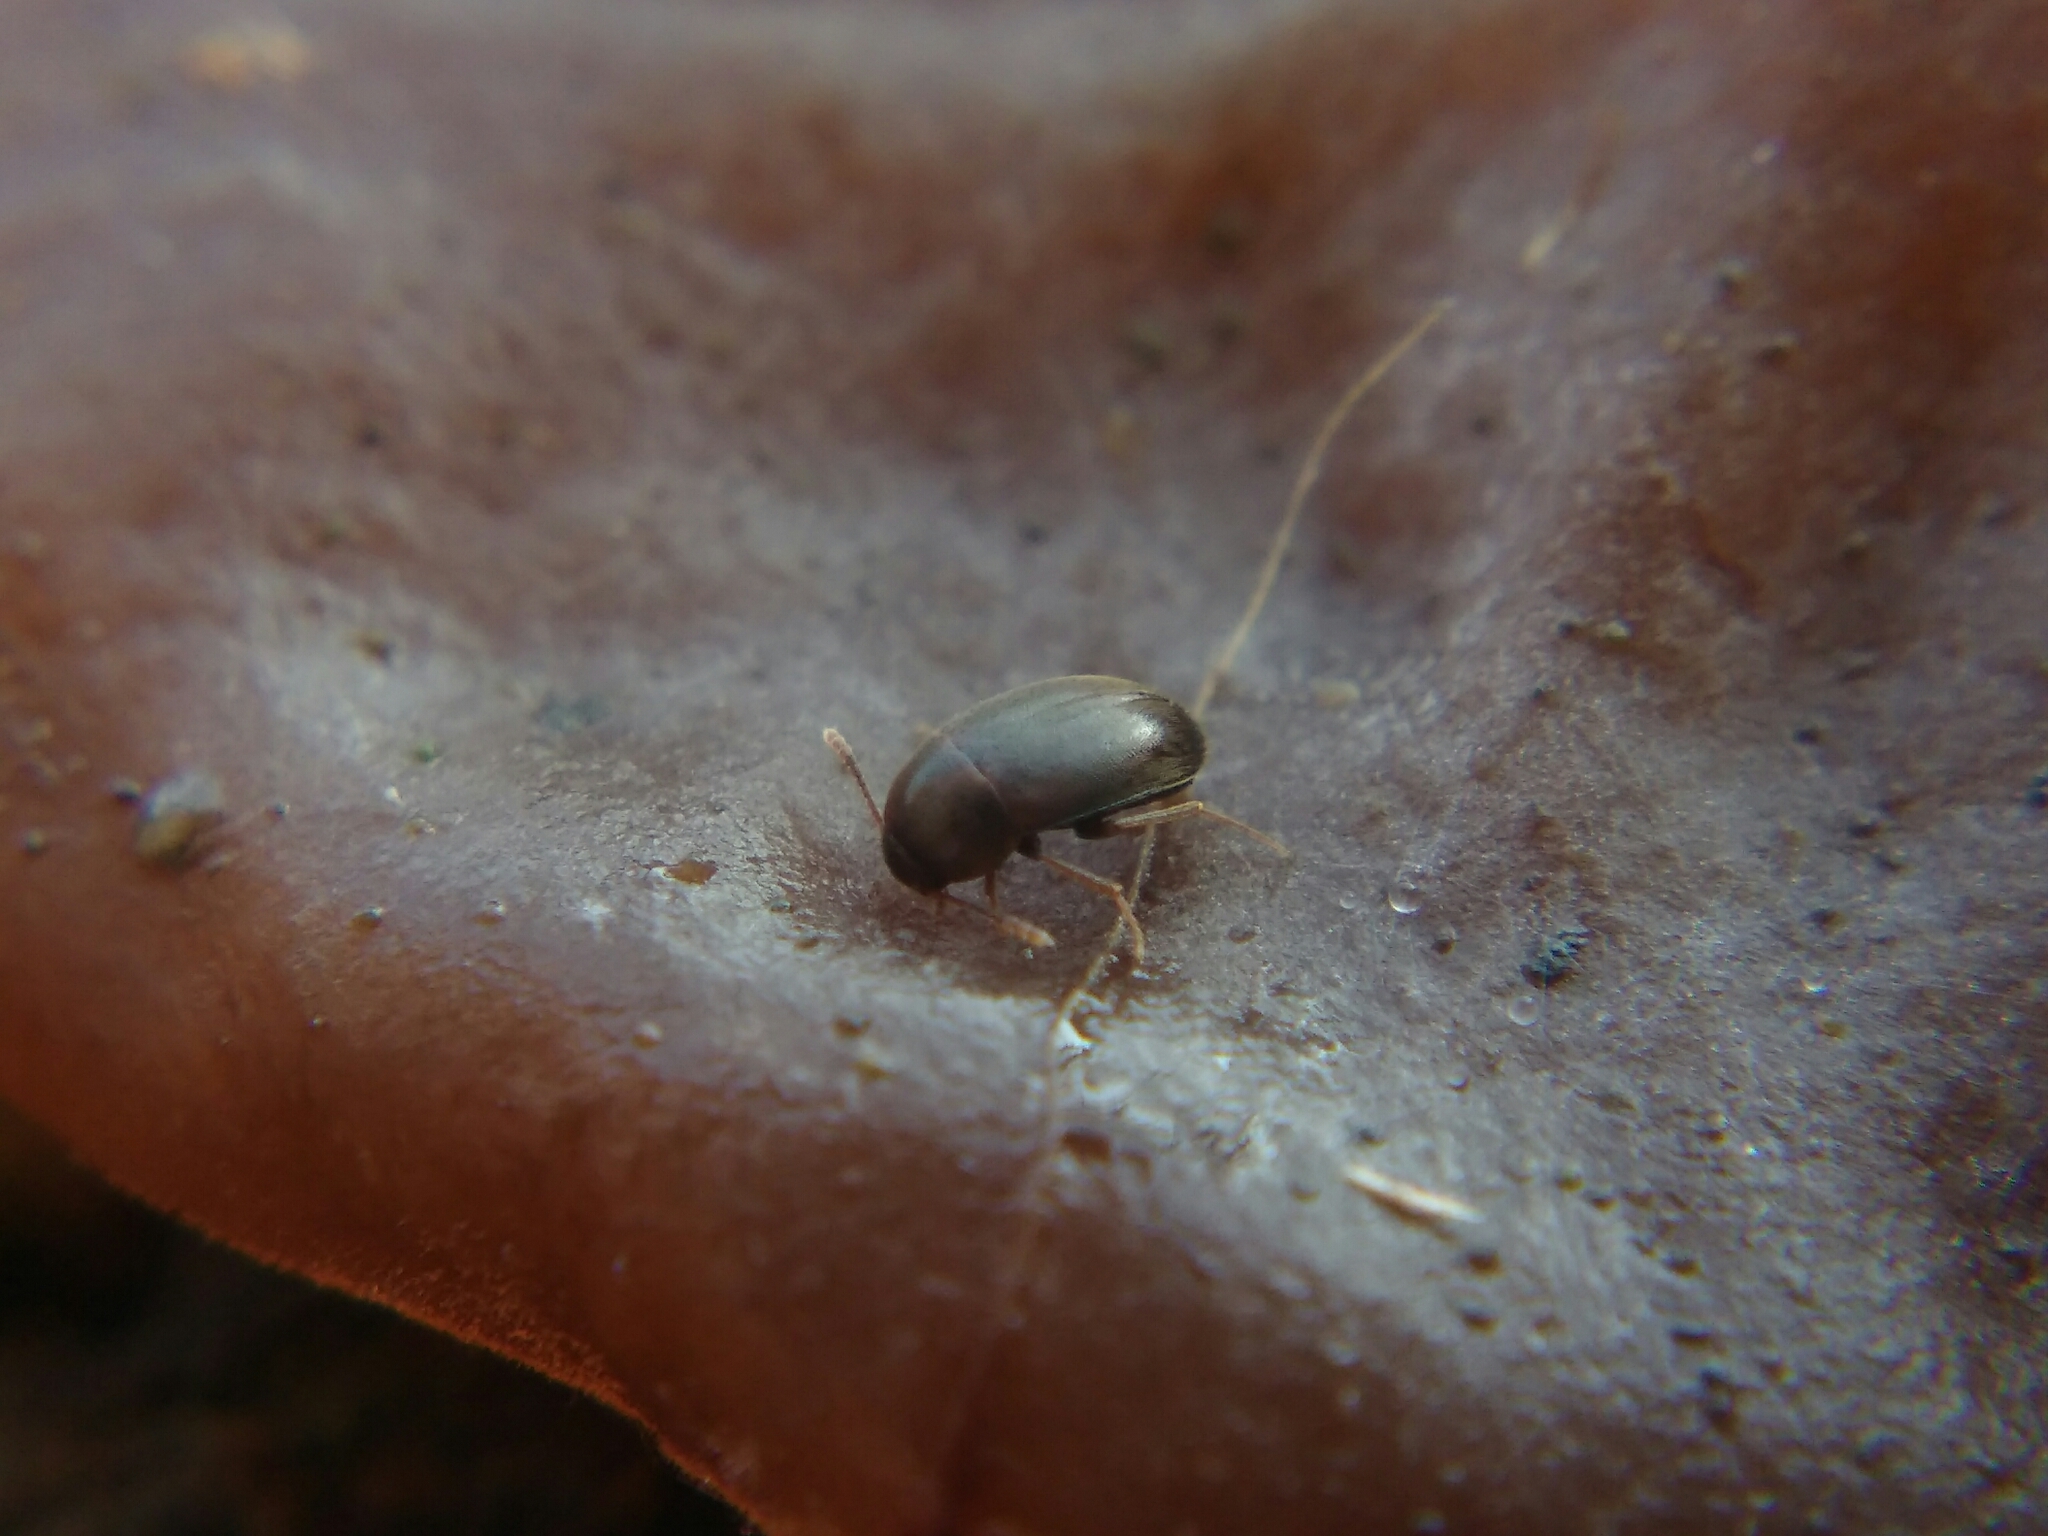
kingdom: Animalia
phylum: Arthropoda
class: Insecta
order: Coleoptera
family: Leiodidae
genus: Nargus
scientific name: Nargus anisotomoides
